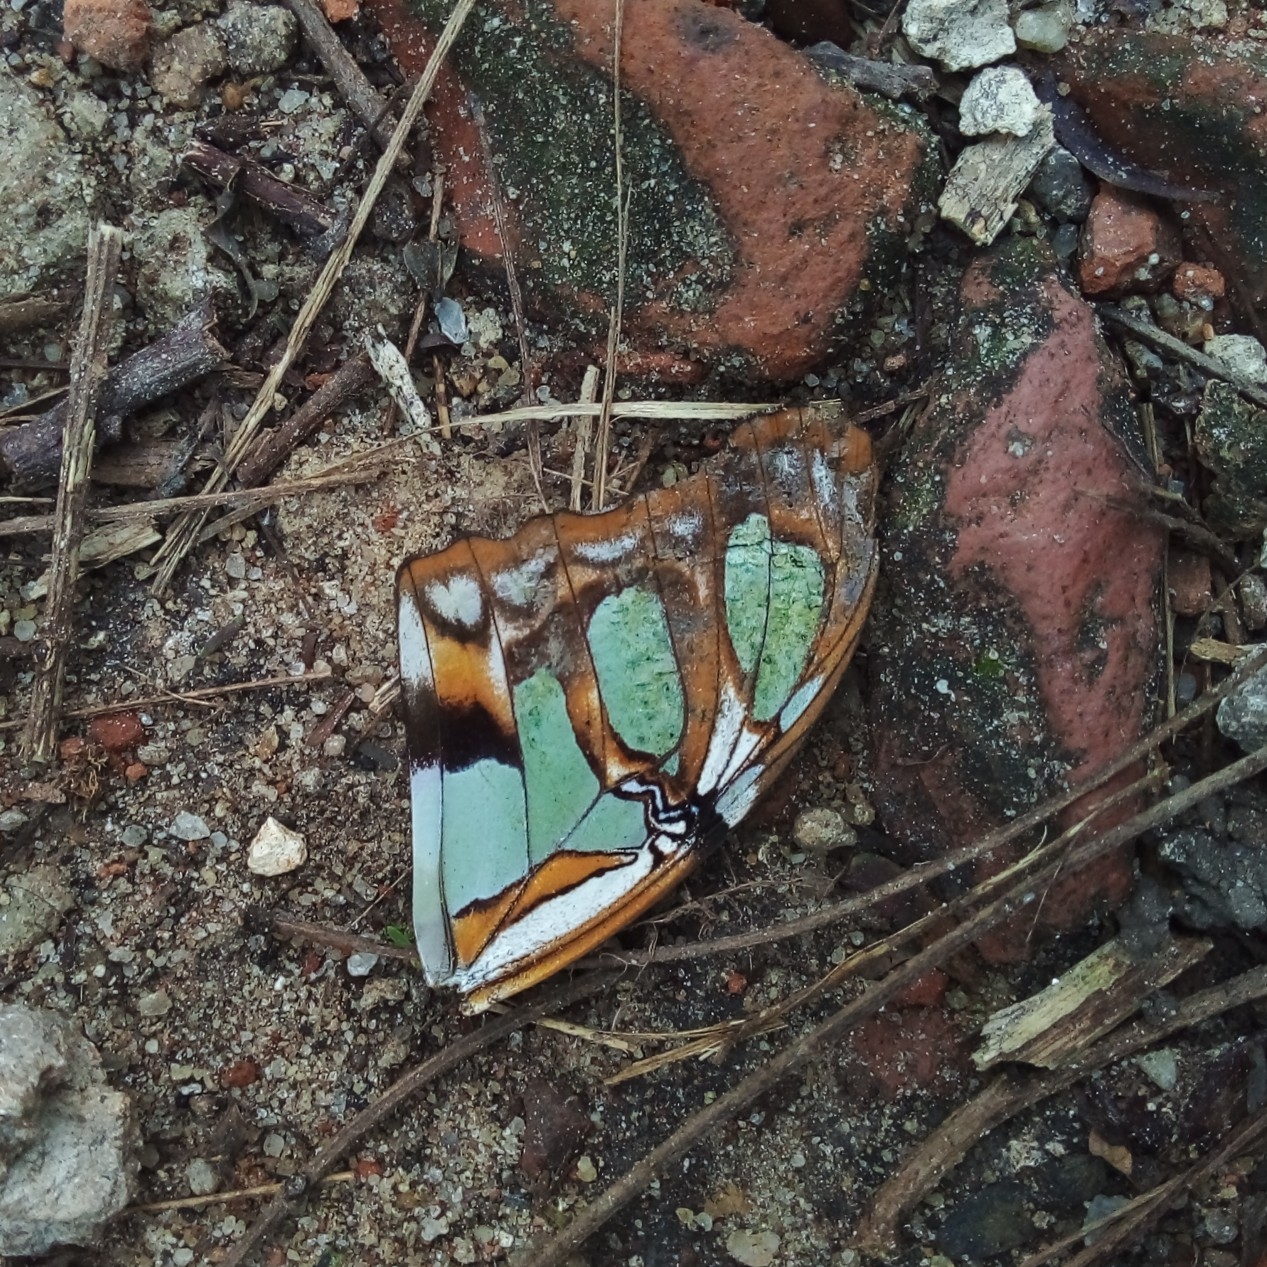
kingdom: Animalia
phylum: Arthropoda
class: Insecta
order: Lepidoptera
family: Nymphalidae
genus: Siproeta
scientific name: Siproeta stelenes
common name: Malachite
